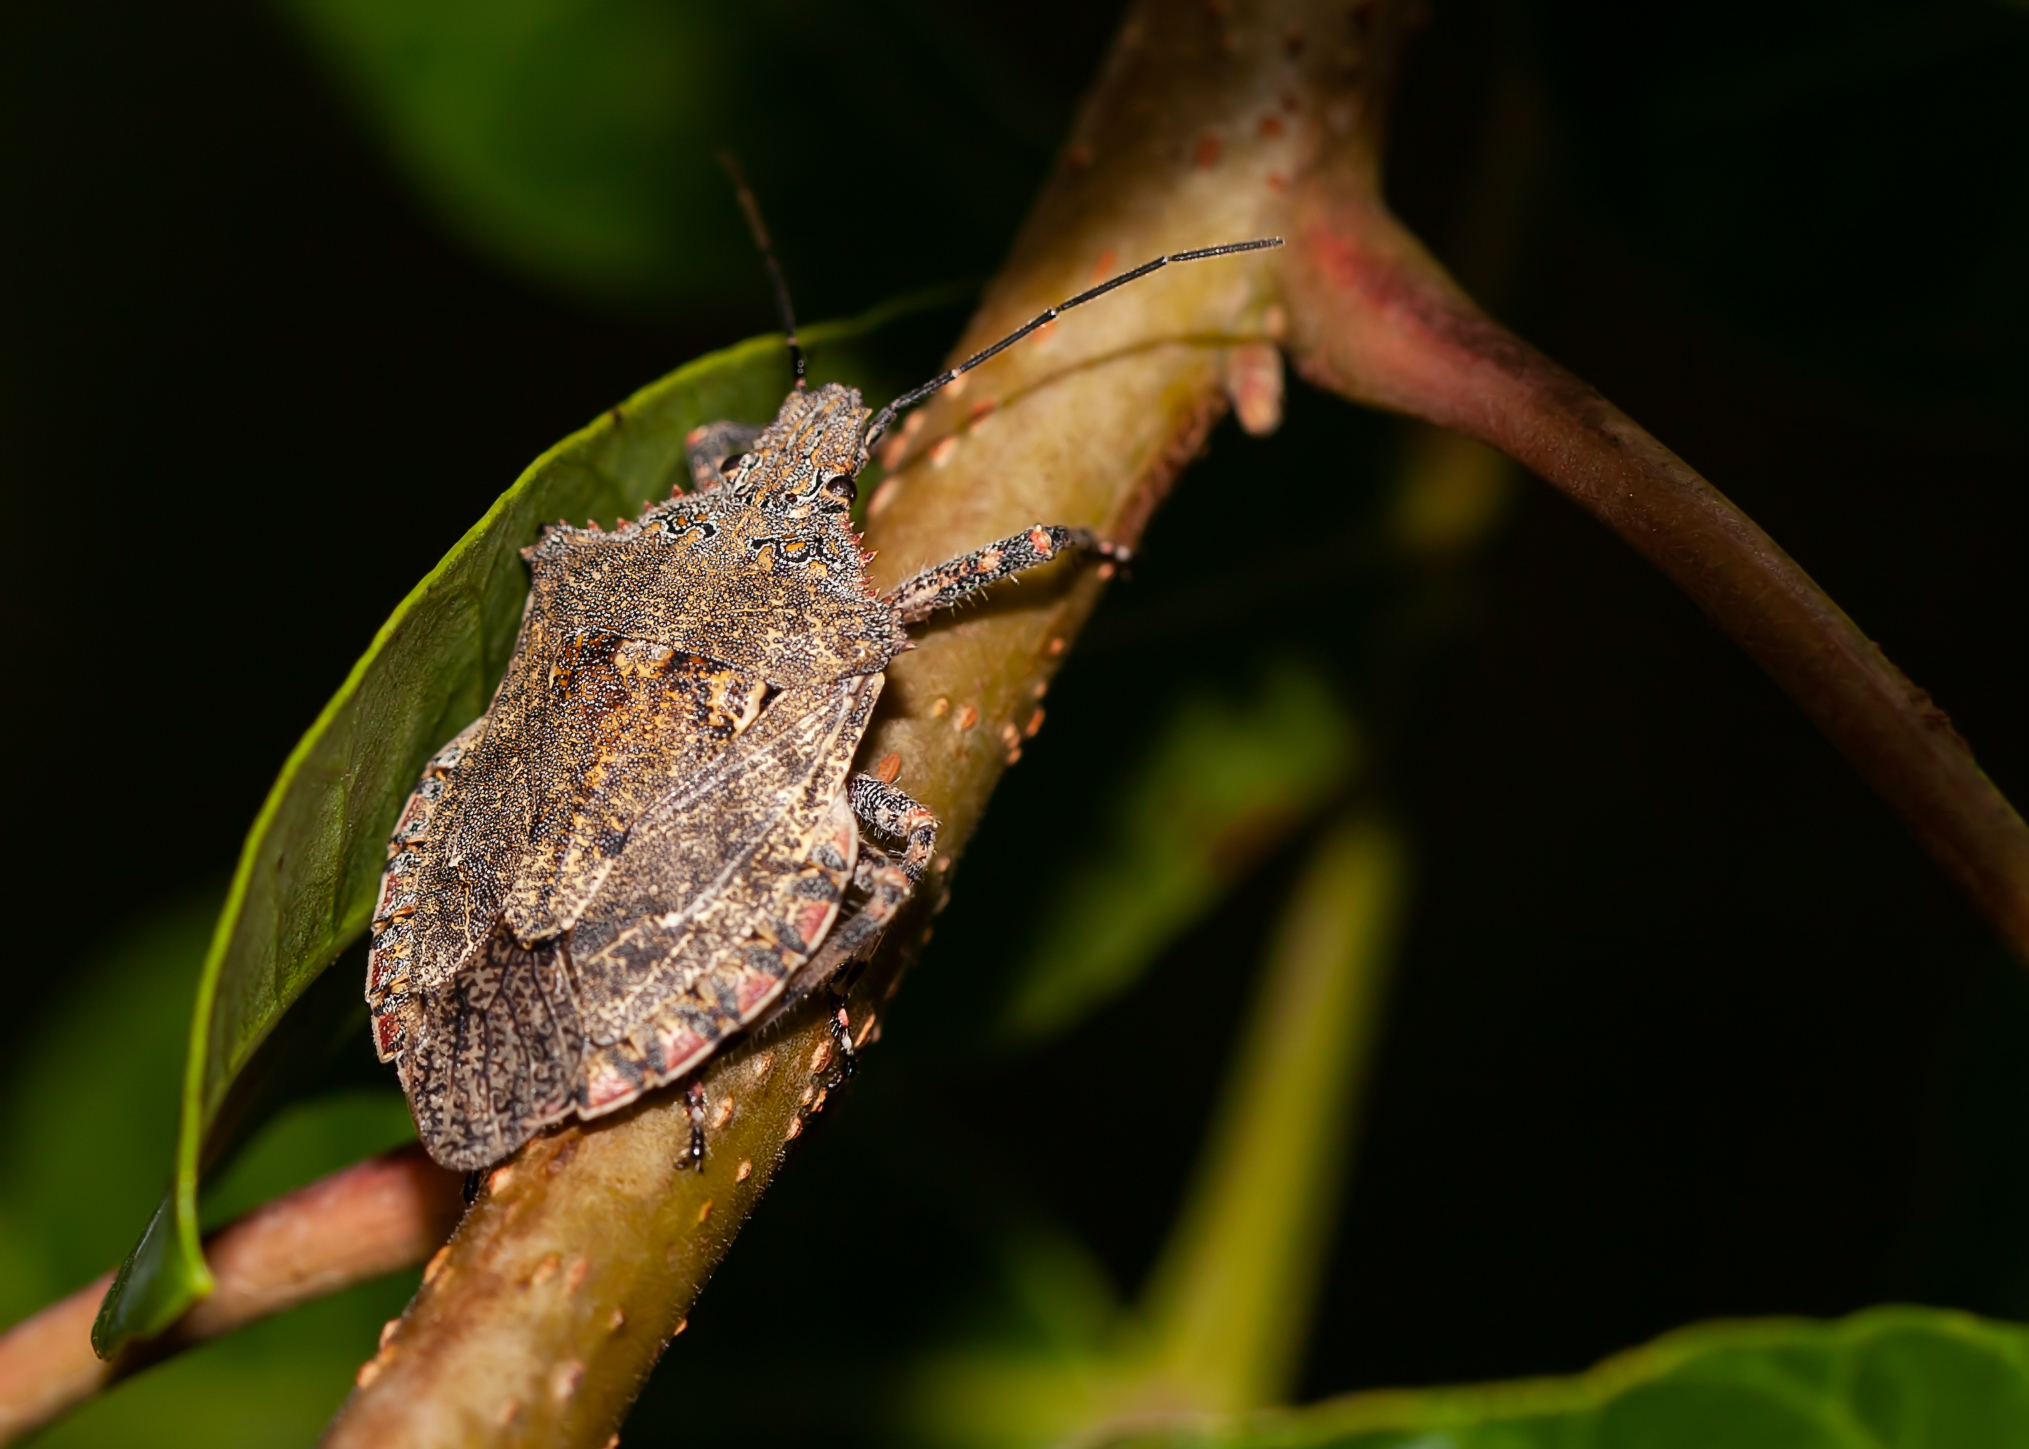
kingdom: Animalia
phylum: Arthropoda
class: Insecta
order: Hemiptera
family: Pentatomidae
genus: Brochymena
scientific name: Brochymena florida
